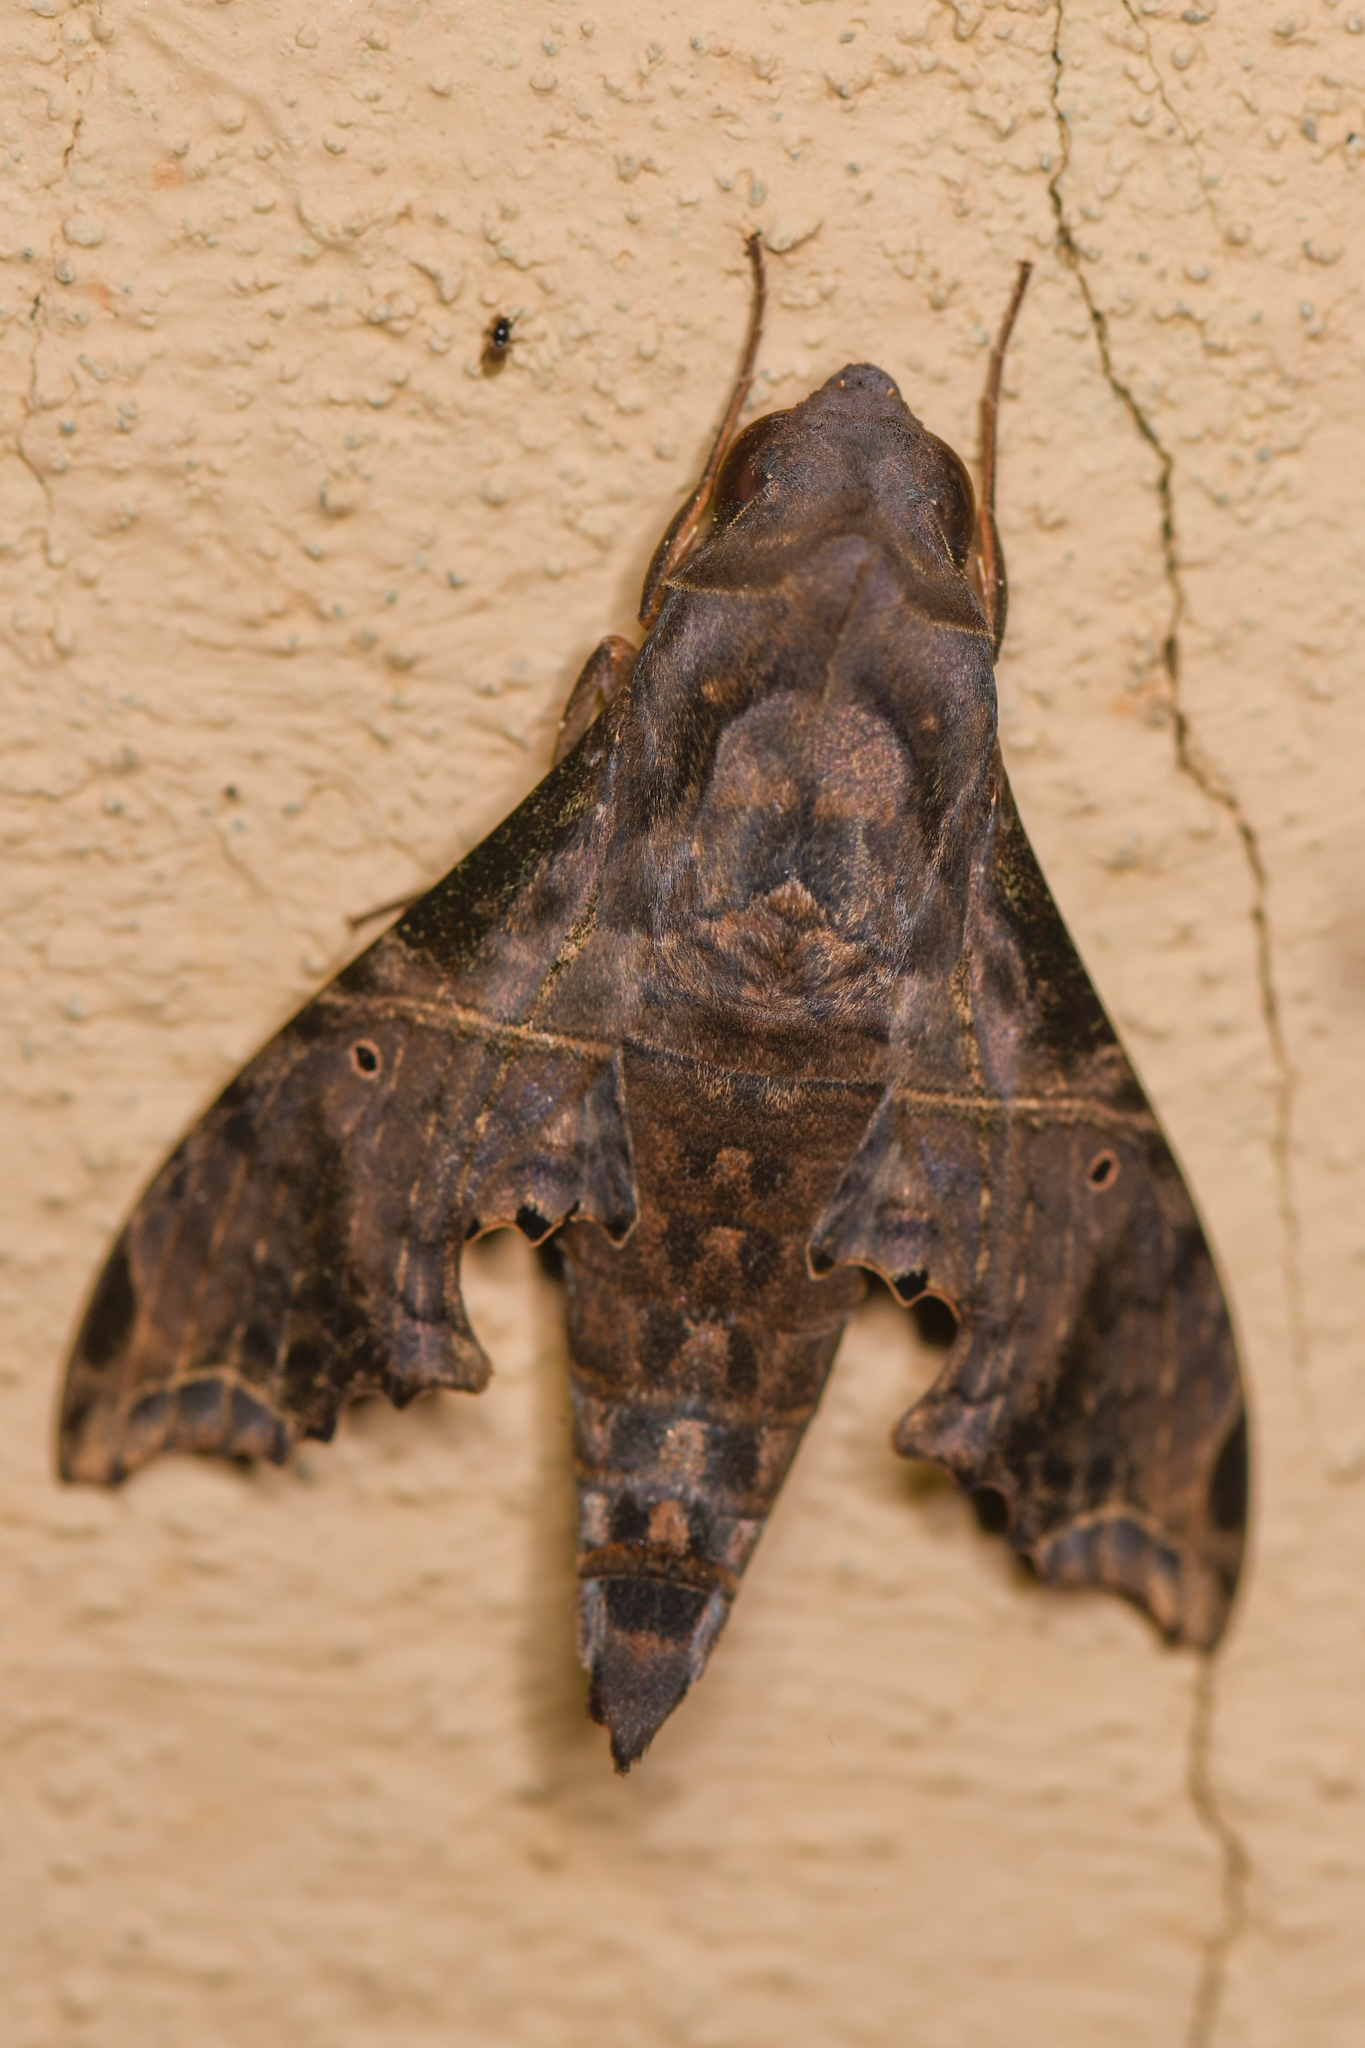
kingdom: Animalia
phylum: Arthropoda
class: Insecta
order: Lepidoptera
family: Sphingidae
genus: Enyo
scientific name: Enyo lugubris
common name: Mournful sphinx
